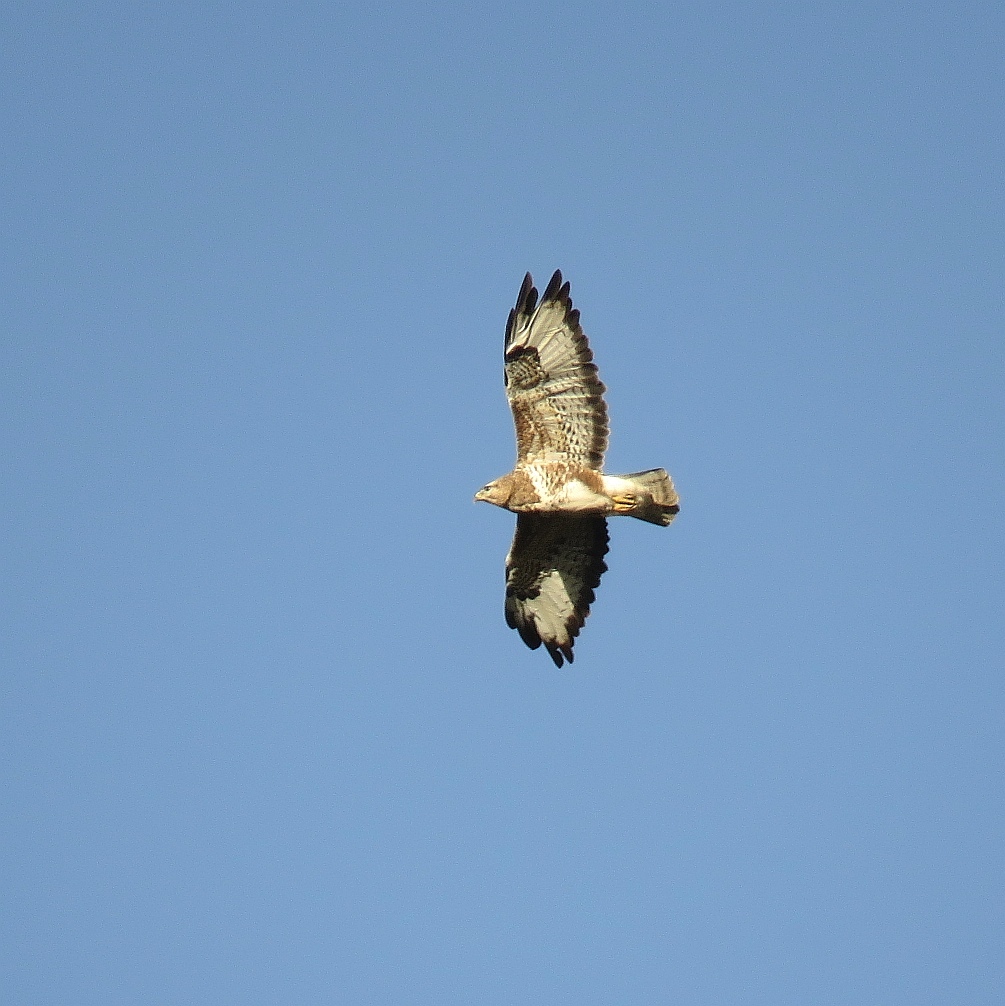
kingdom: Animalia
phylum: Chordata
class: Aves
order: Accipitriformes
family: Accipitridae
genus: Buteo
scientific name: Buteo trizonatus
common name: Forest buzzard
